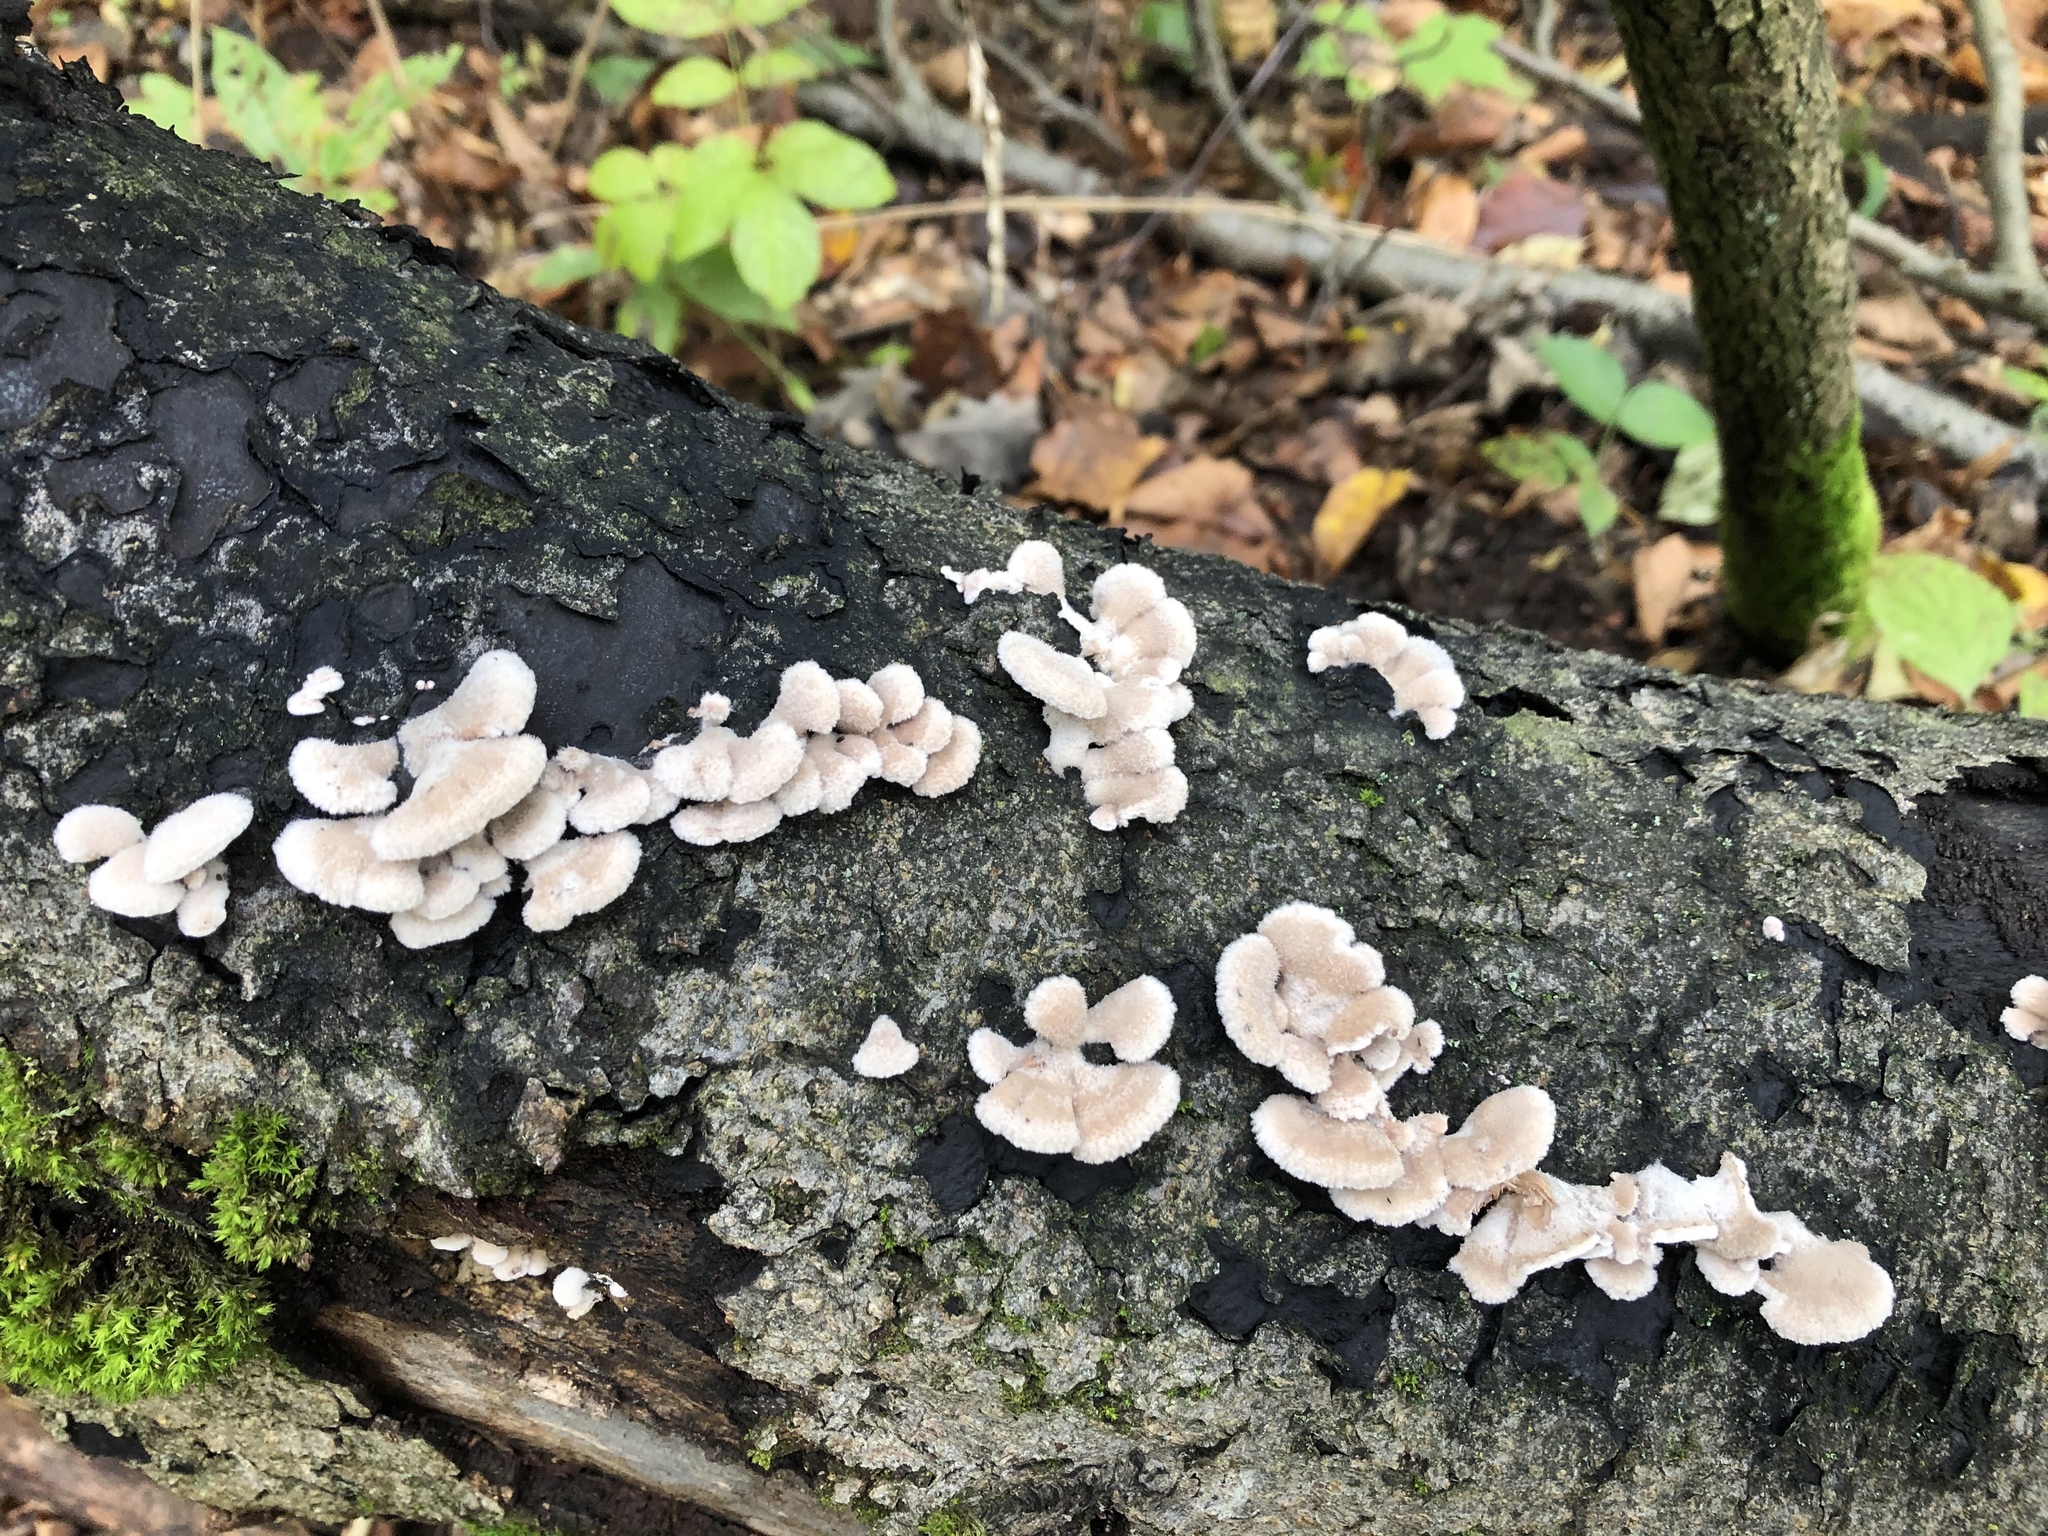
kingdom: Fungi
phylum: Basidiomycota
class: Agaricomycetes
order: Agaricales
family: Schizophyllaceae
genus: Schizophyllum
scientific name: Schizophyllum commune
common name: Common porecrust
